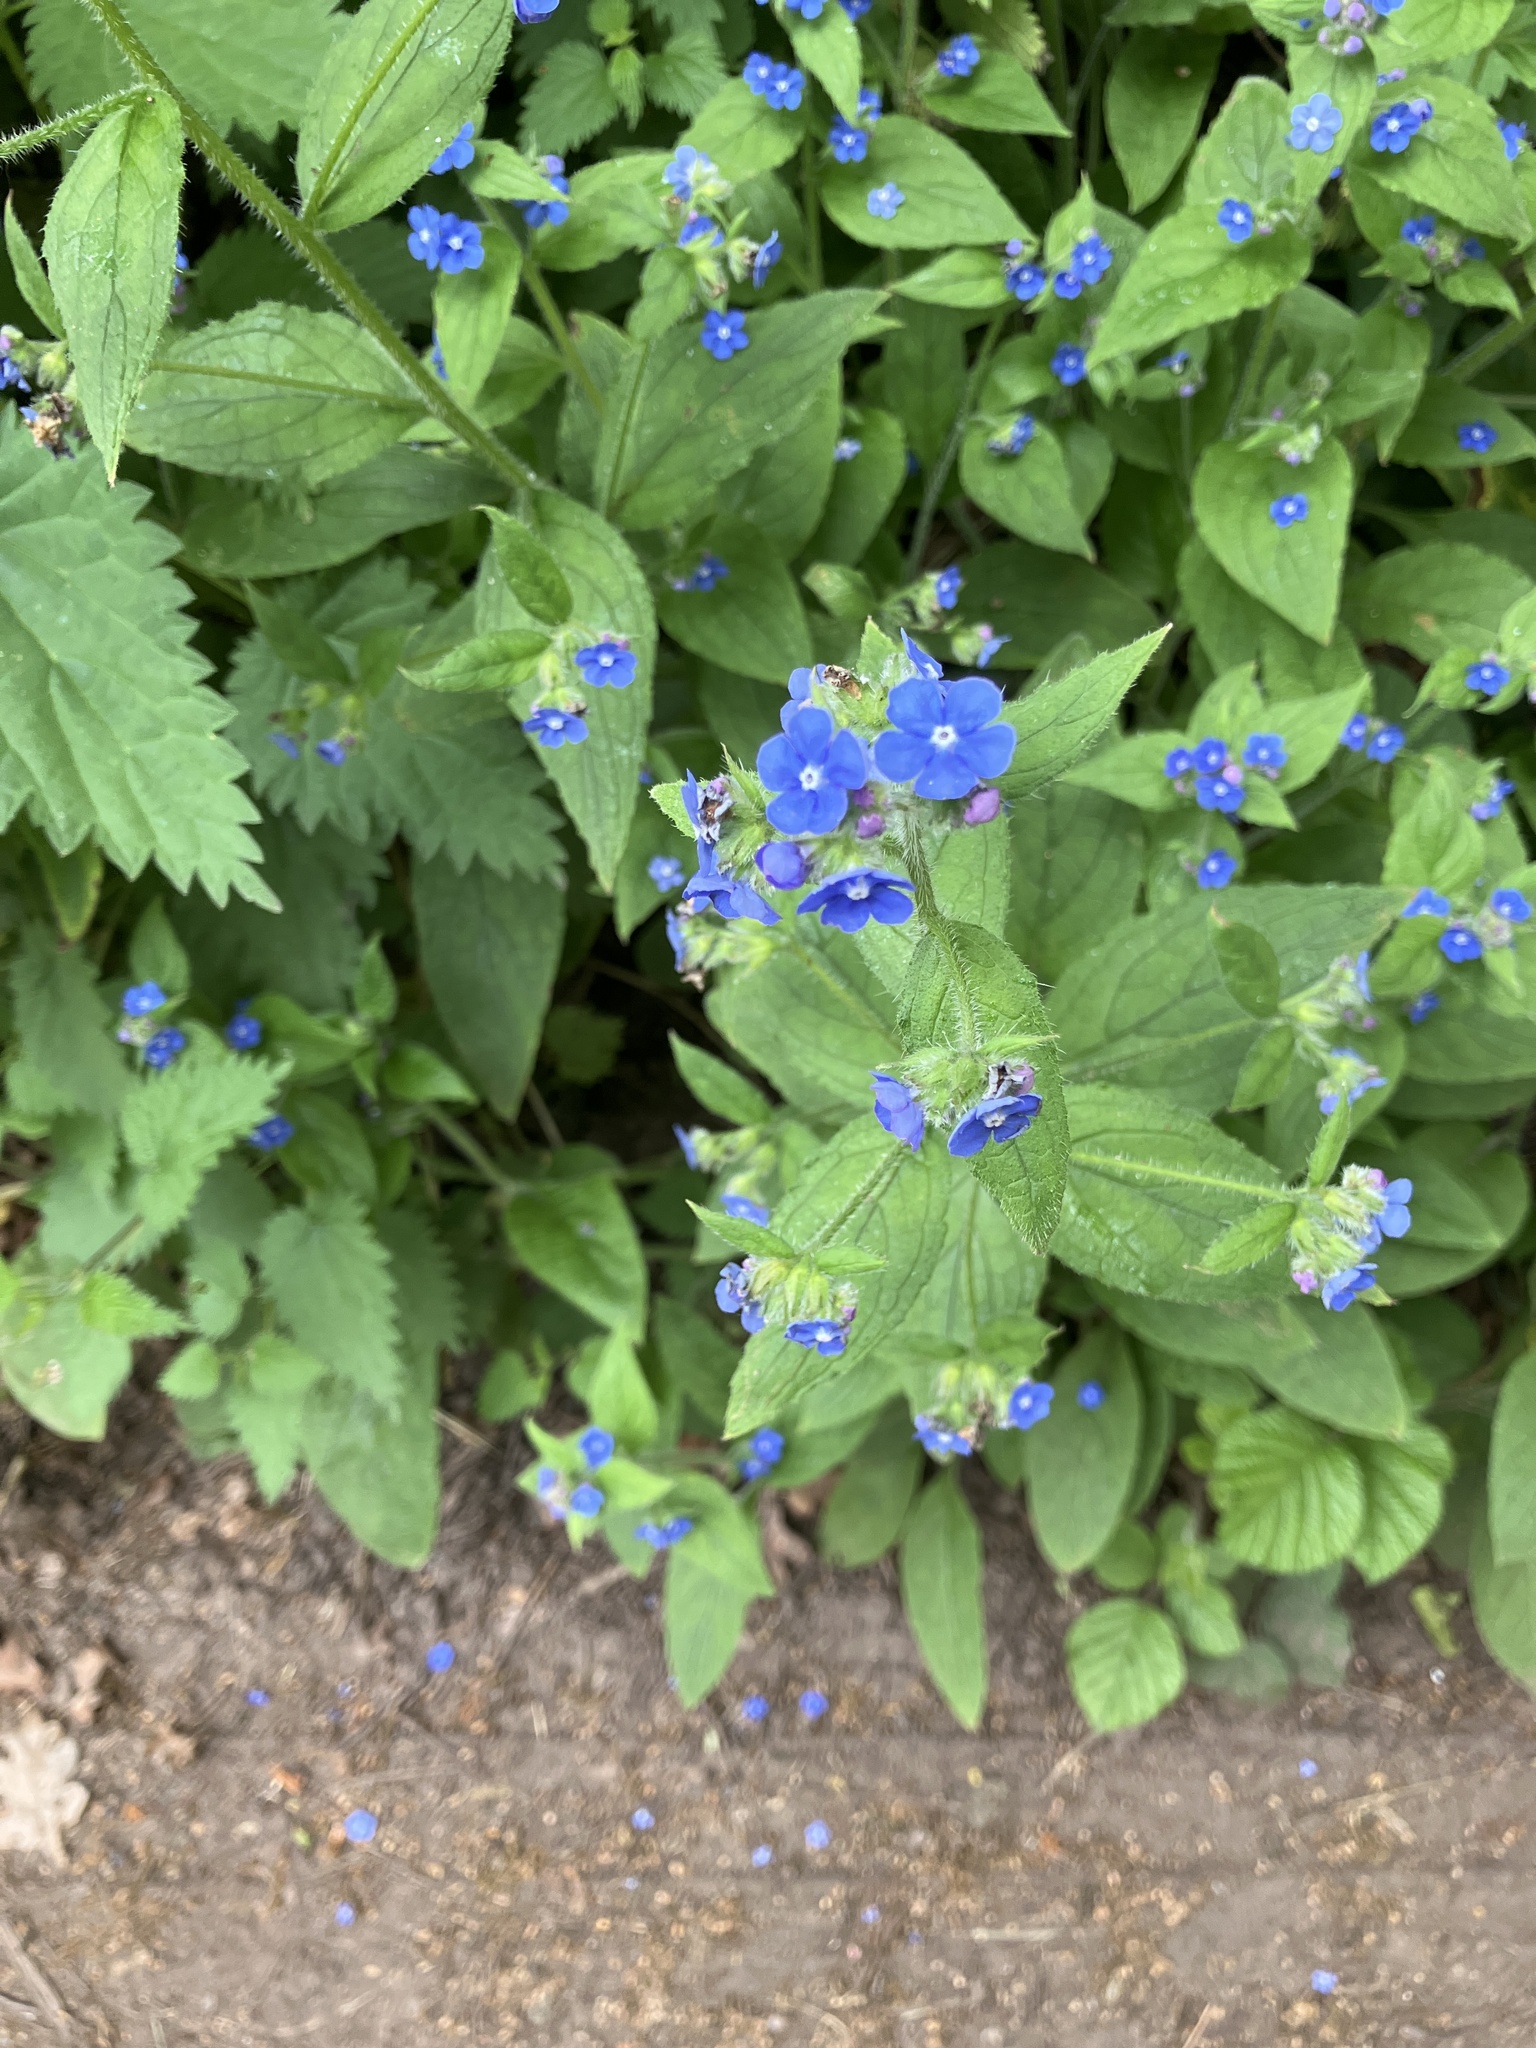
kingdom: Plantae
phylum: Tracheophyta
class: Magnoliopsida
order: Boraginales
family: Boraginaceae
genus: Pentaglottis
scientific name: Pentaglottis sempervirens
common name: Green alkanet
